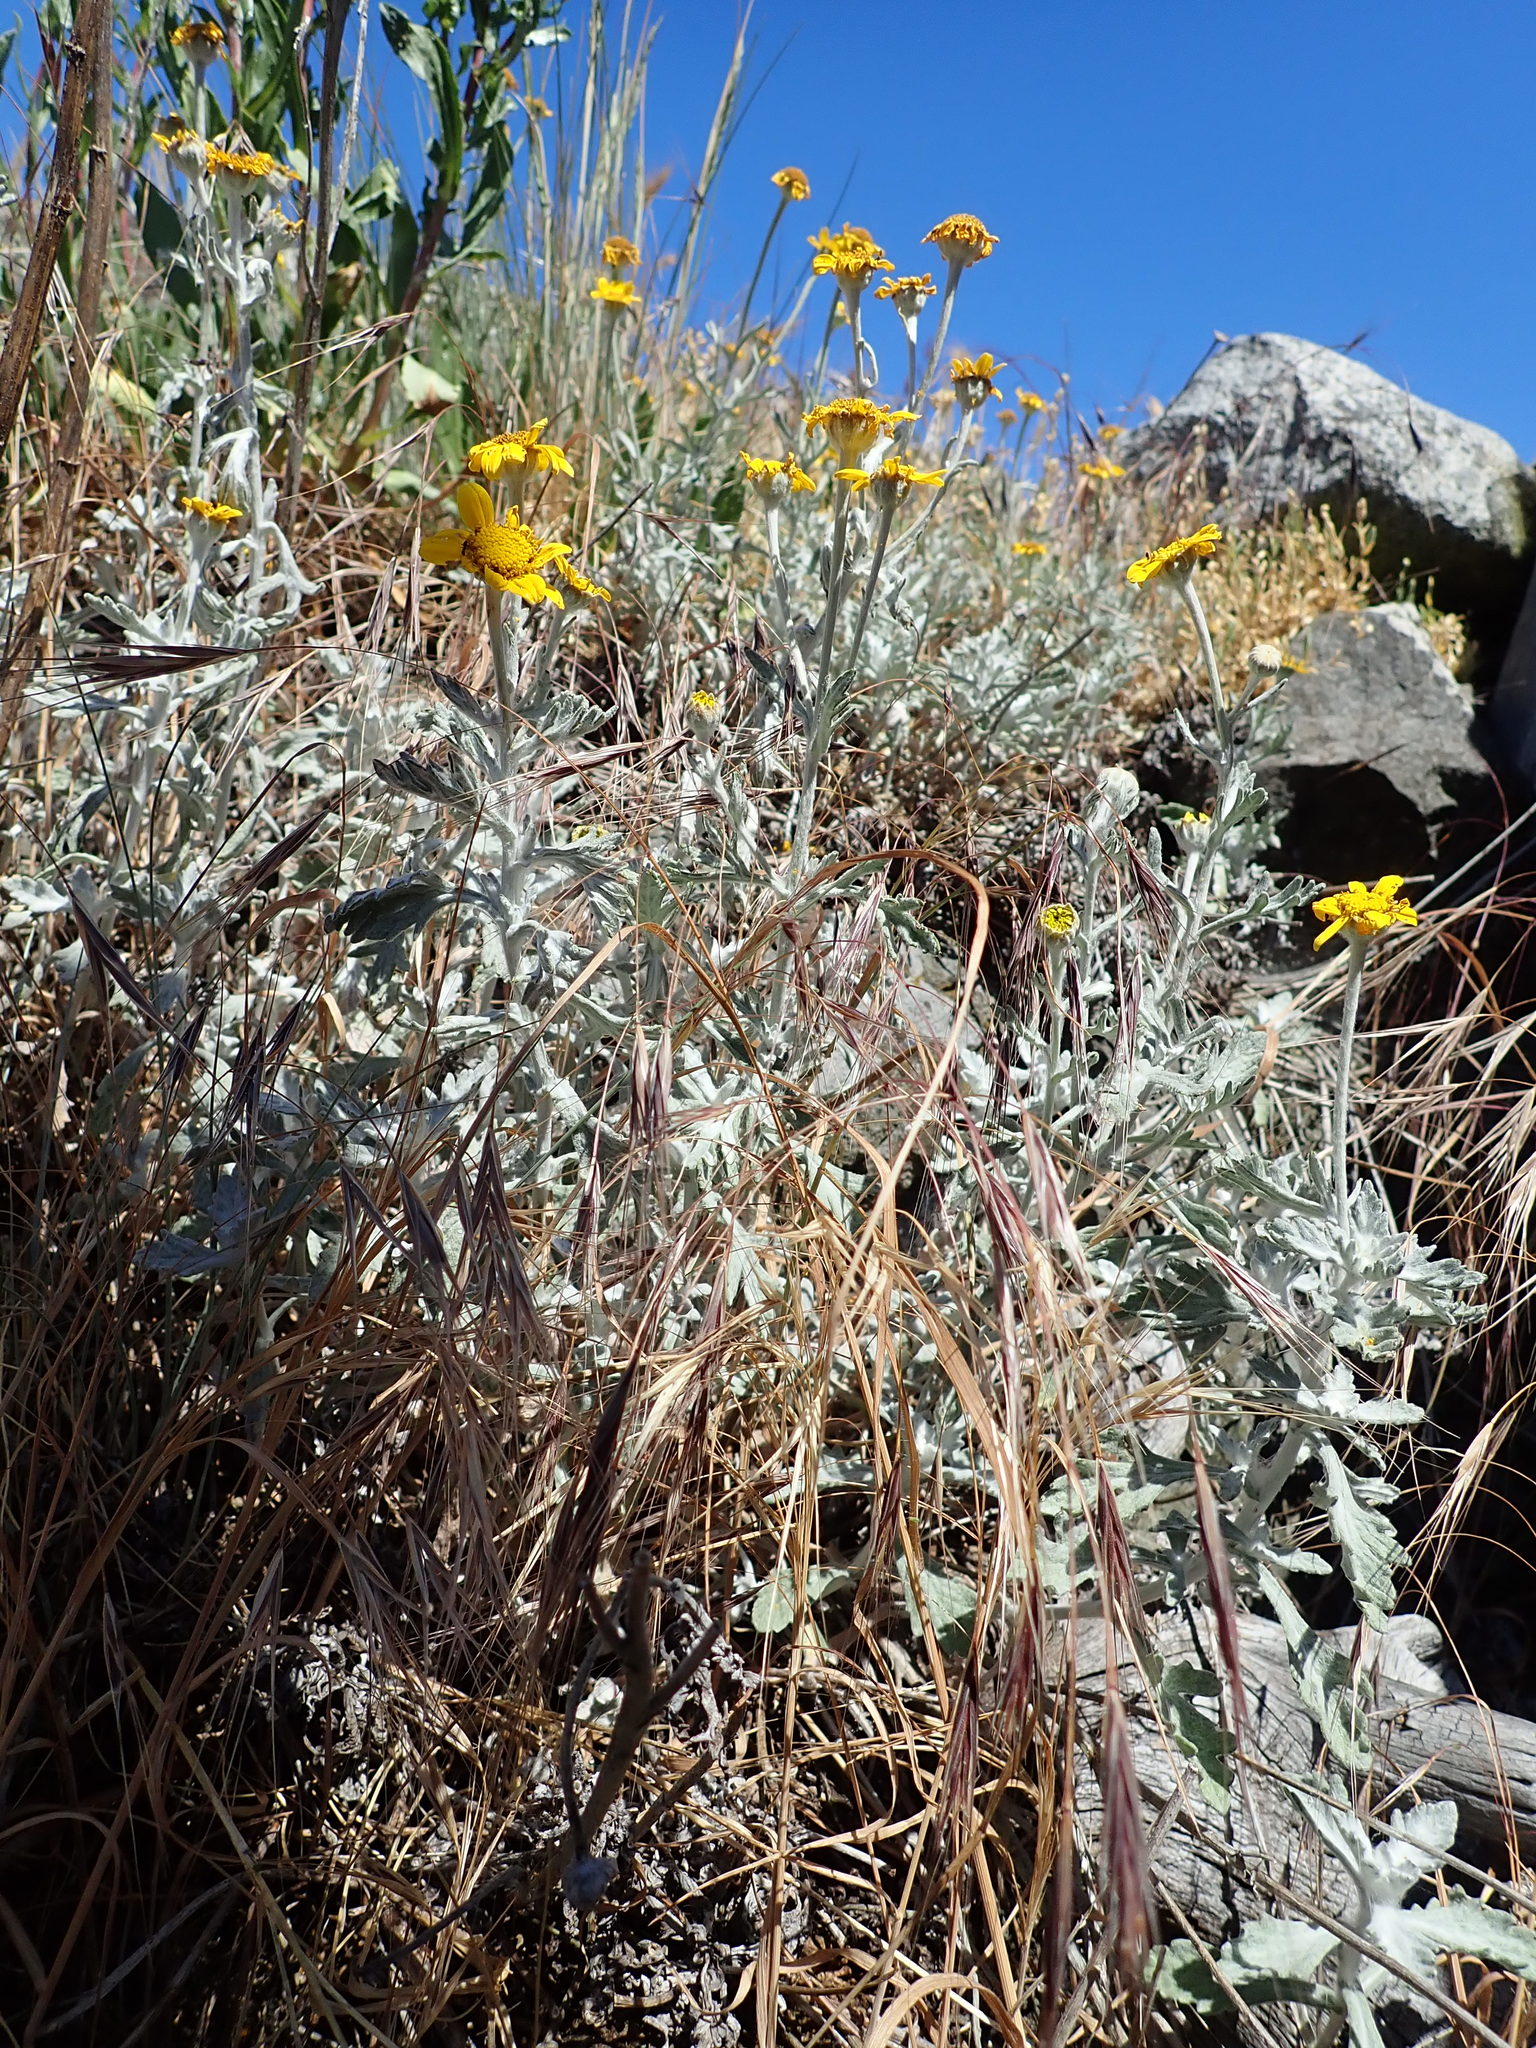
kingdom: Plantae
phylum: Tracheophyta
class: Magnoliopsida
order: Asterales
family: Asteraceae
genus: Eriophyllum
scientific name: Eriophyllum lanatum
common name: Common woolly-sunflower
